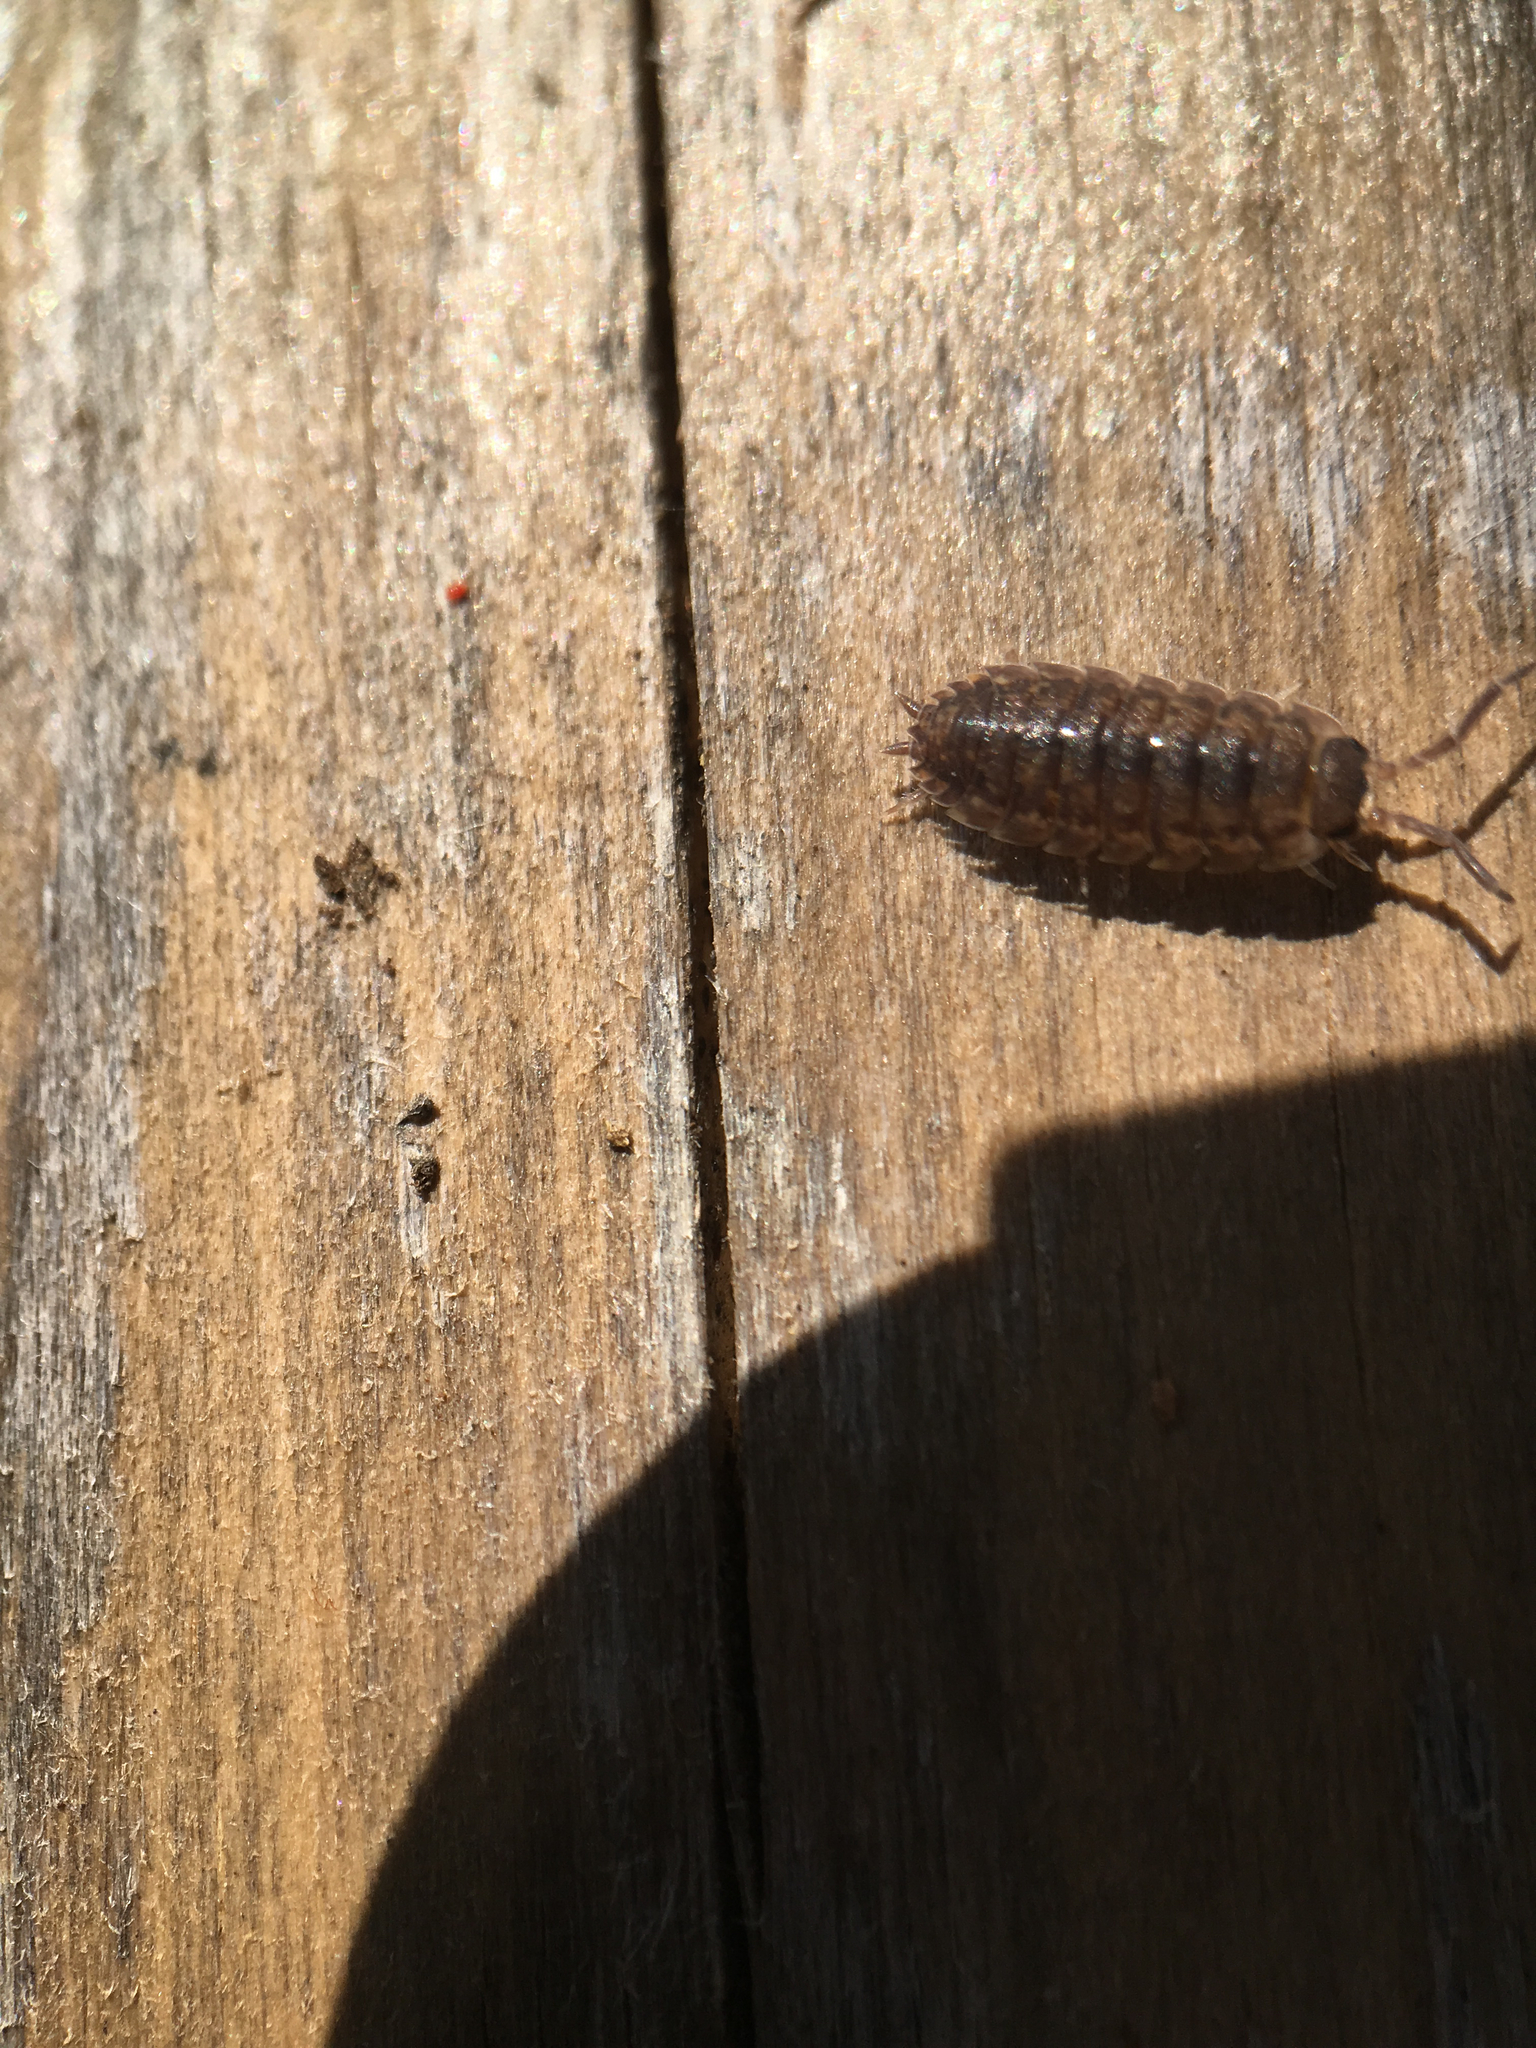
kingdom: Animalia
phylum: Arthropoda
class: Malacostraca
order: Isopoda
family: Porcellionidae
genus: Porcellio
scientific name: Porcellio scaber
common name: Common rough woodlouse
